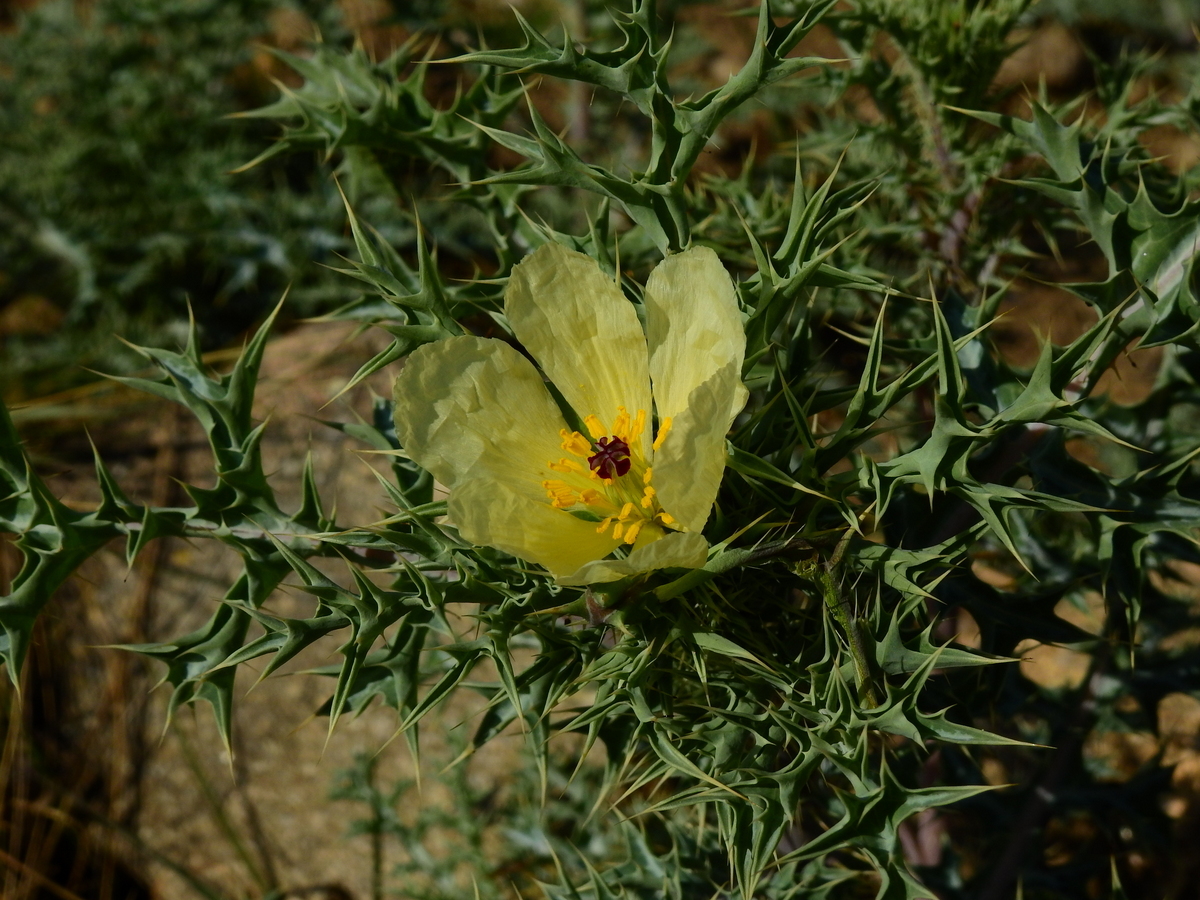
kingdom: Plantae
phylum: Tracheophyta
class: Magnoliopsida
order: Ranunculales
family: Papaveraceae
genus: Argemone
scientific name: Argemone subfusiformis
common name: American-poppy
